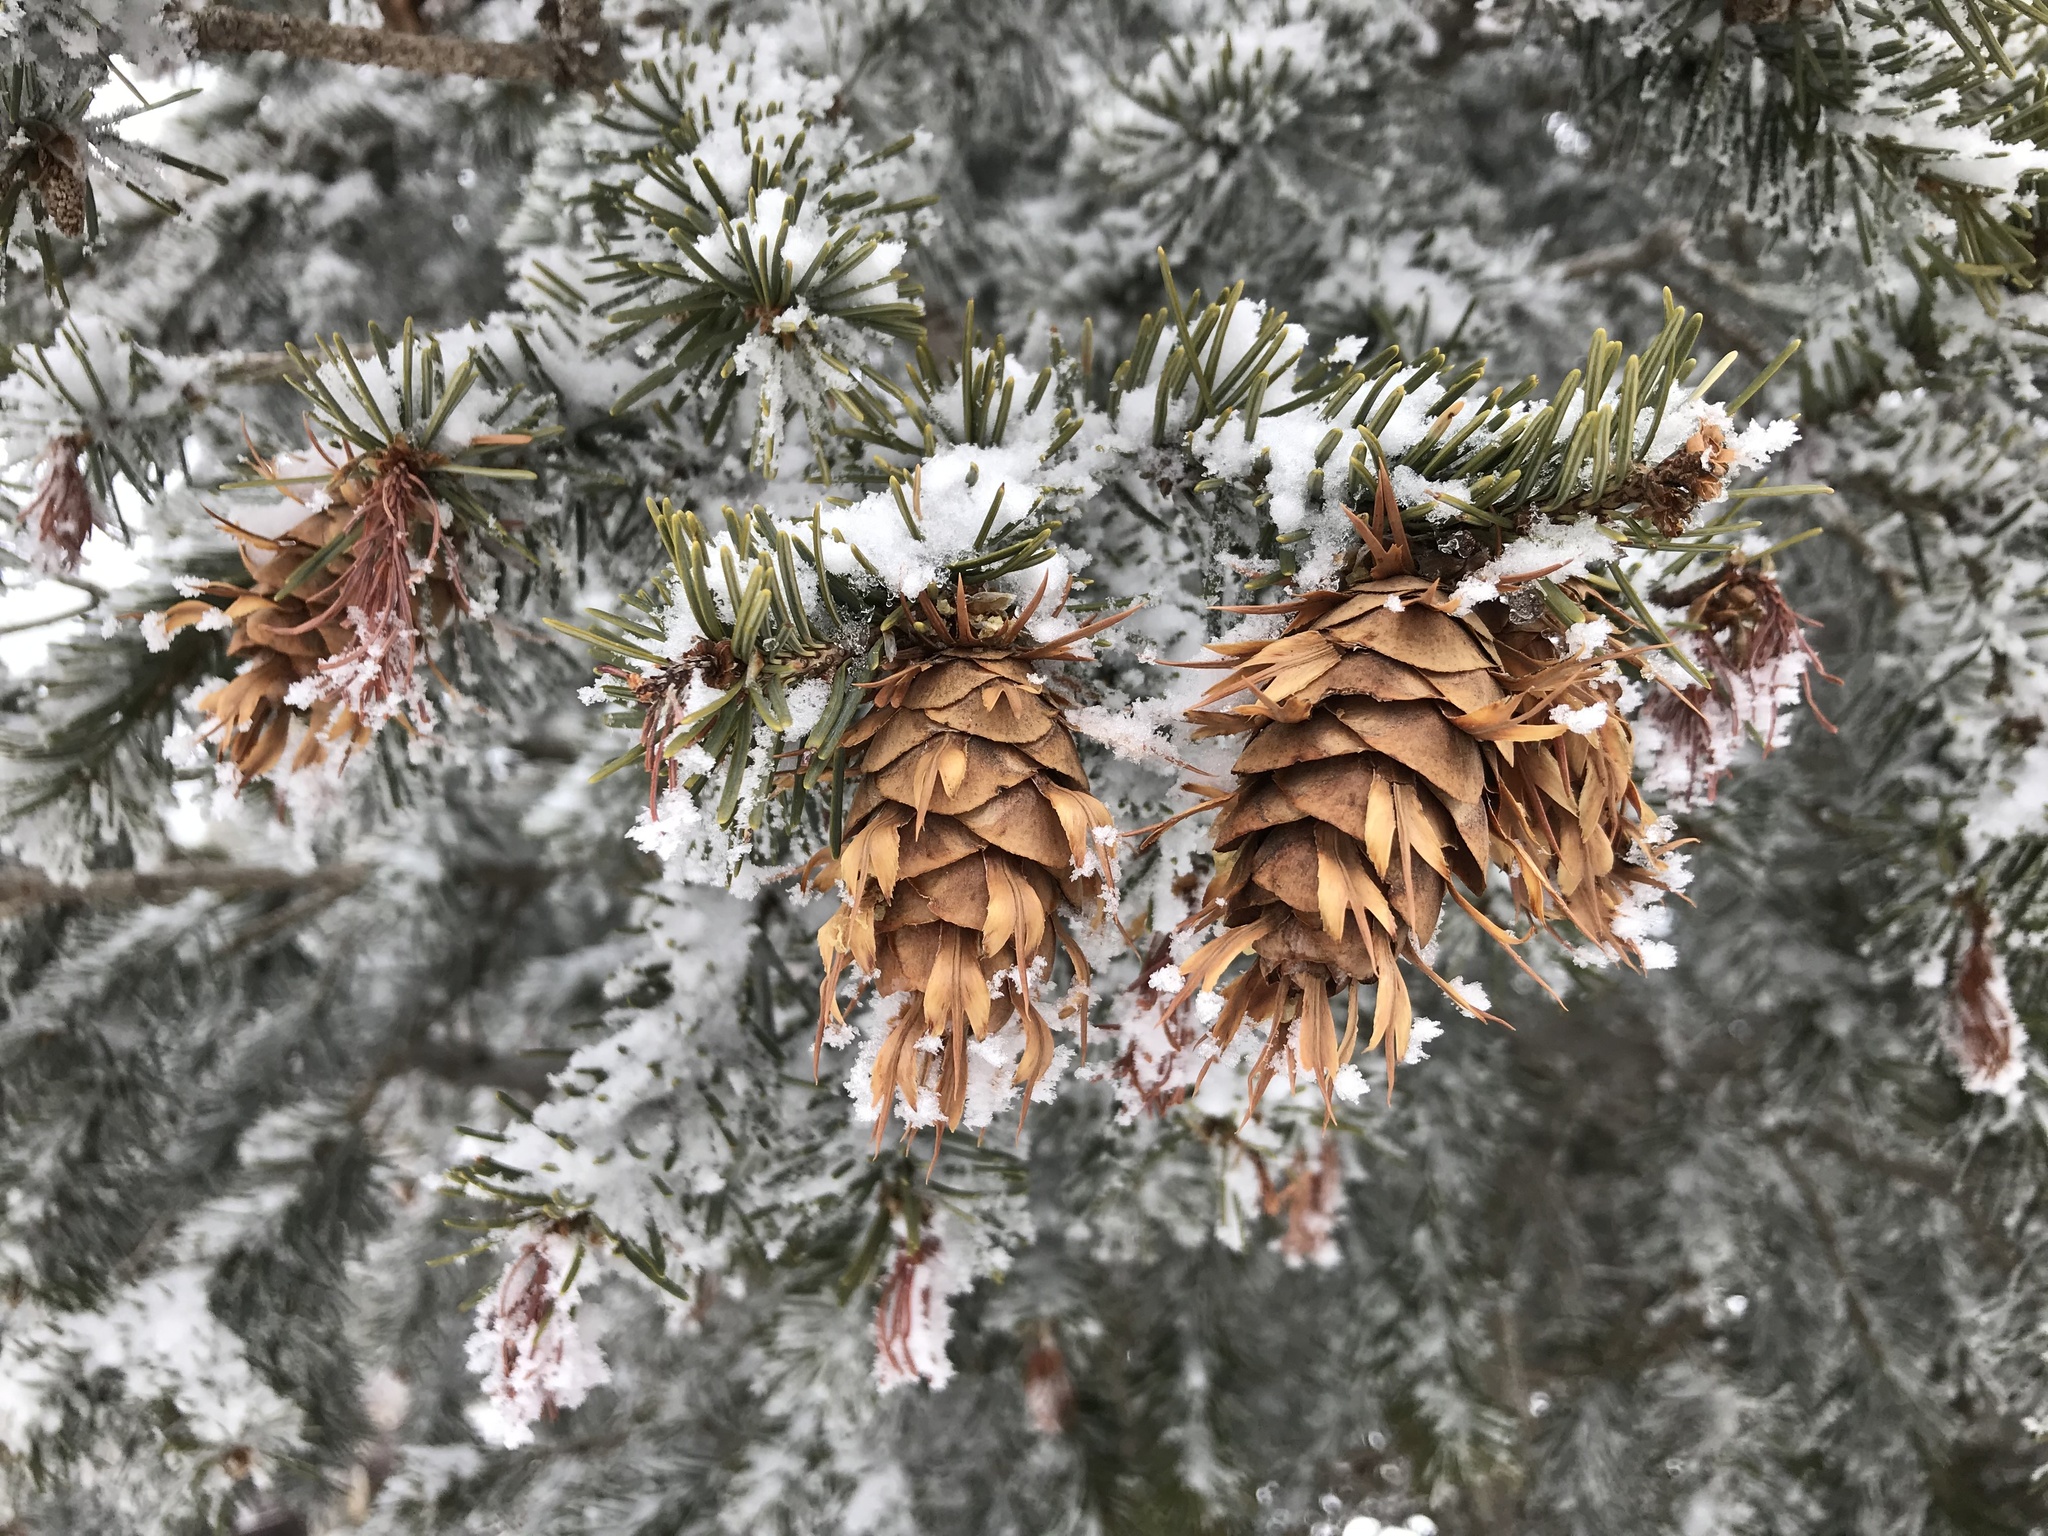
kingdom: Plantae
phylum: Tracheophyta
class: Pinopsida
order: Pinales
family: Pinaceae
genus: Pseudotsuga
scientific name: Pseudotsuga menziesii
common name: Douglas fir
